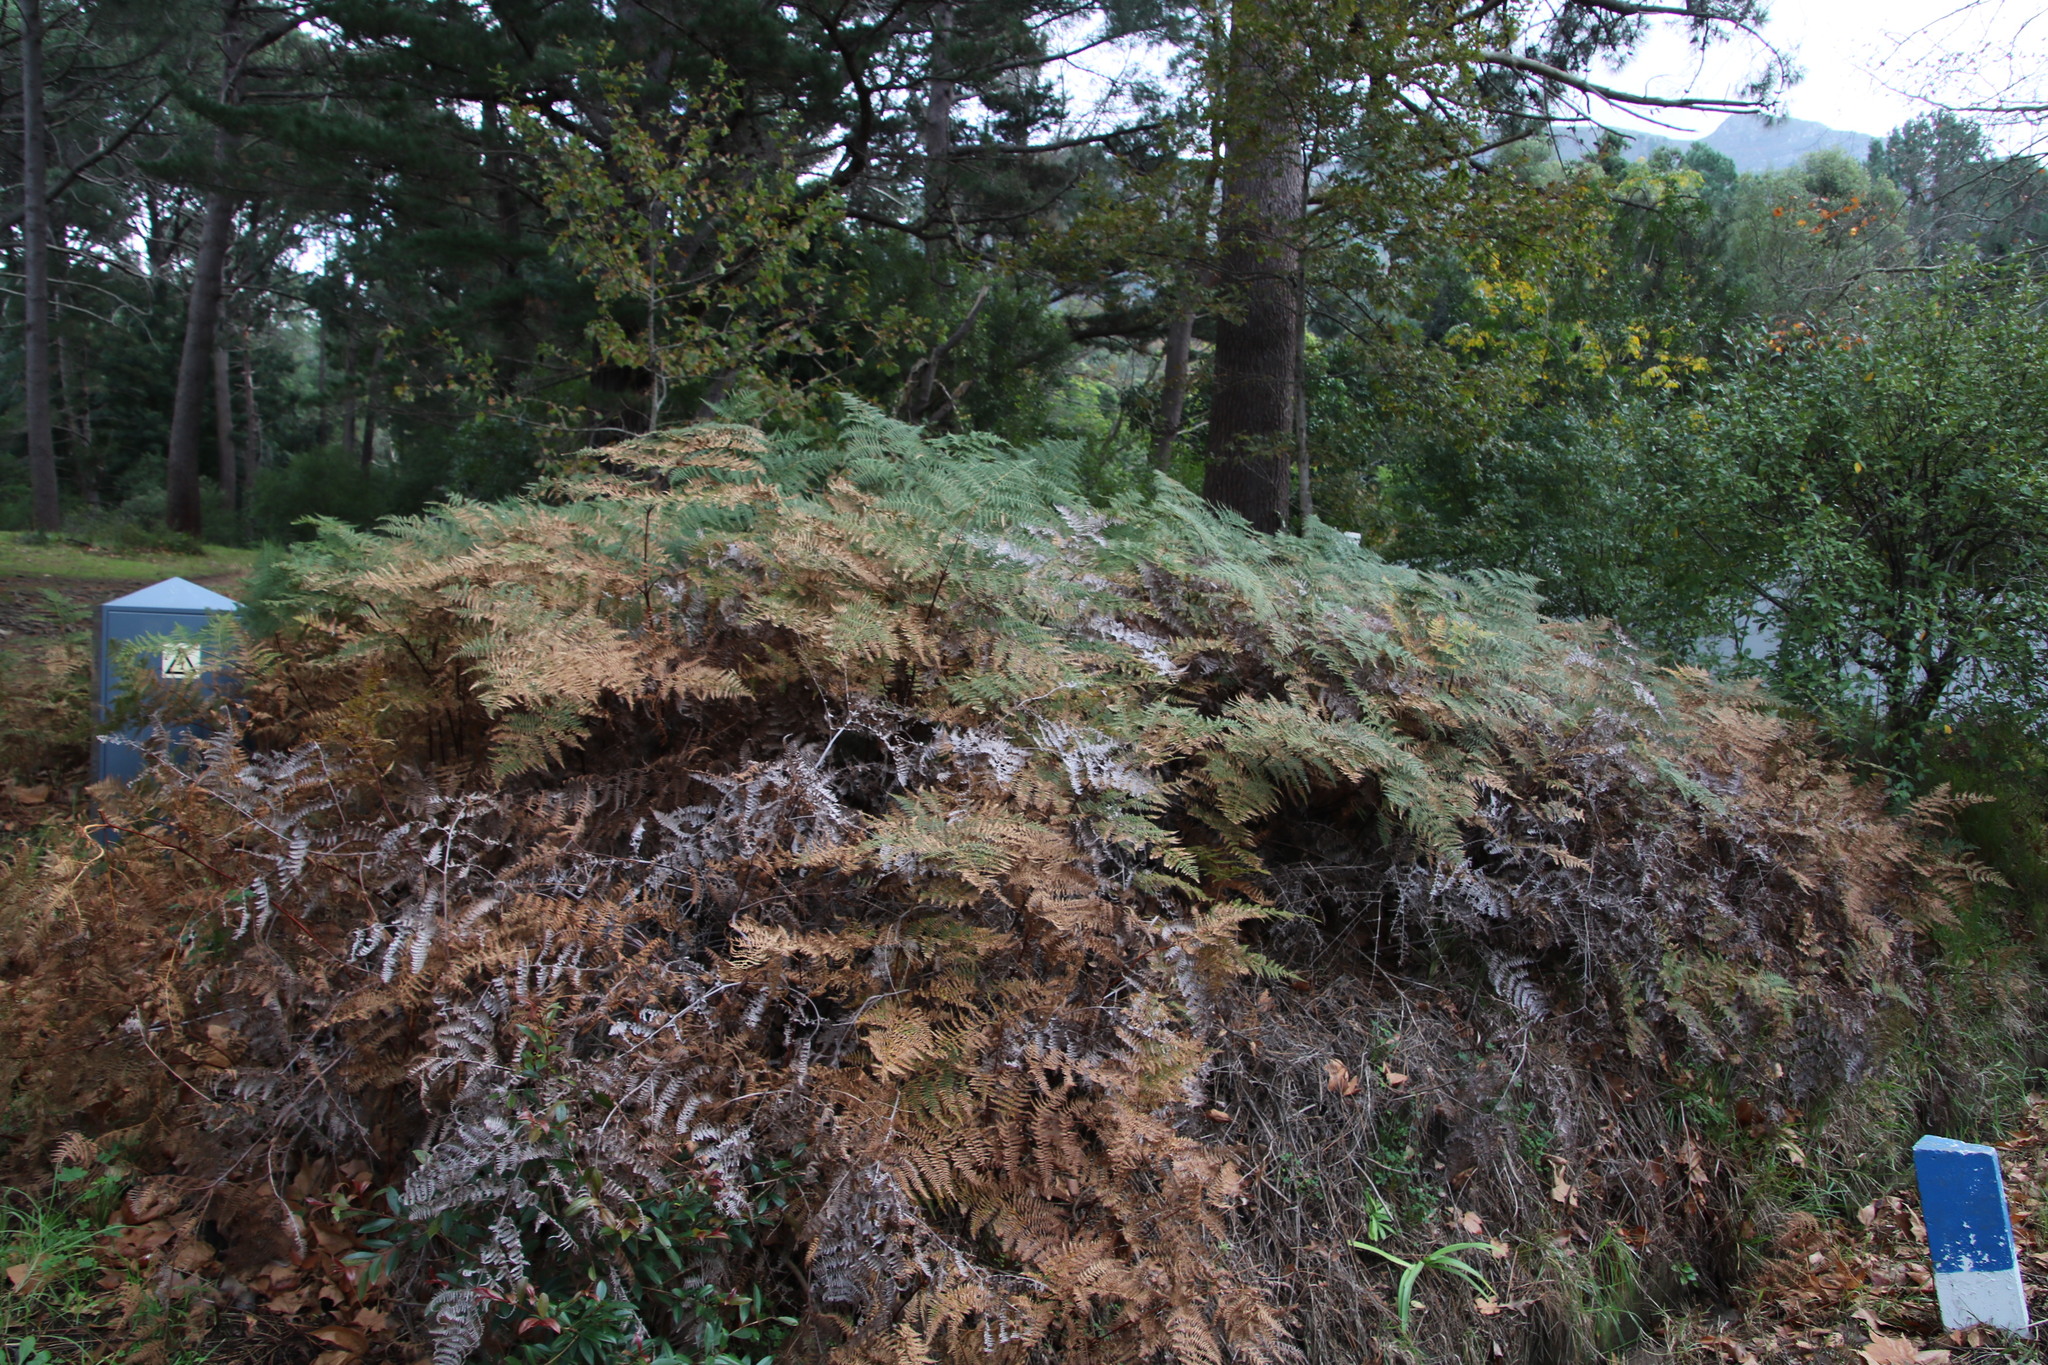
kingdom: Plantae
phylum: Tracheophyta
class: Polypodiopsida
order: Polypodiales
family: Dennstaedtiaceae
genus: Pteridium
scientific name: Pteridium aquilinum
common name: Bracken
